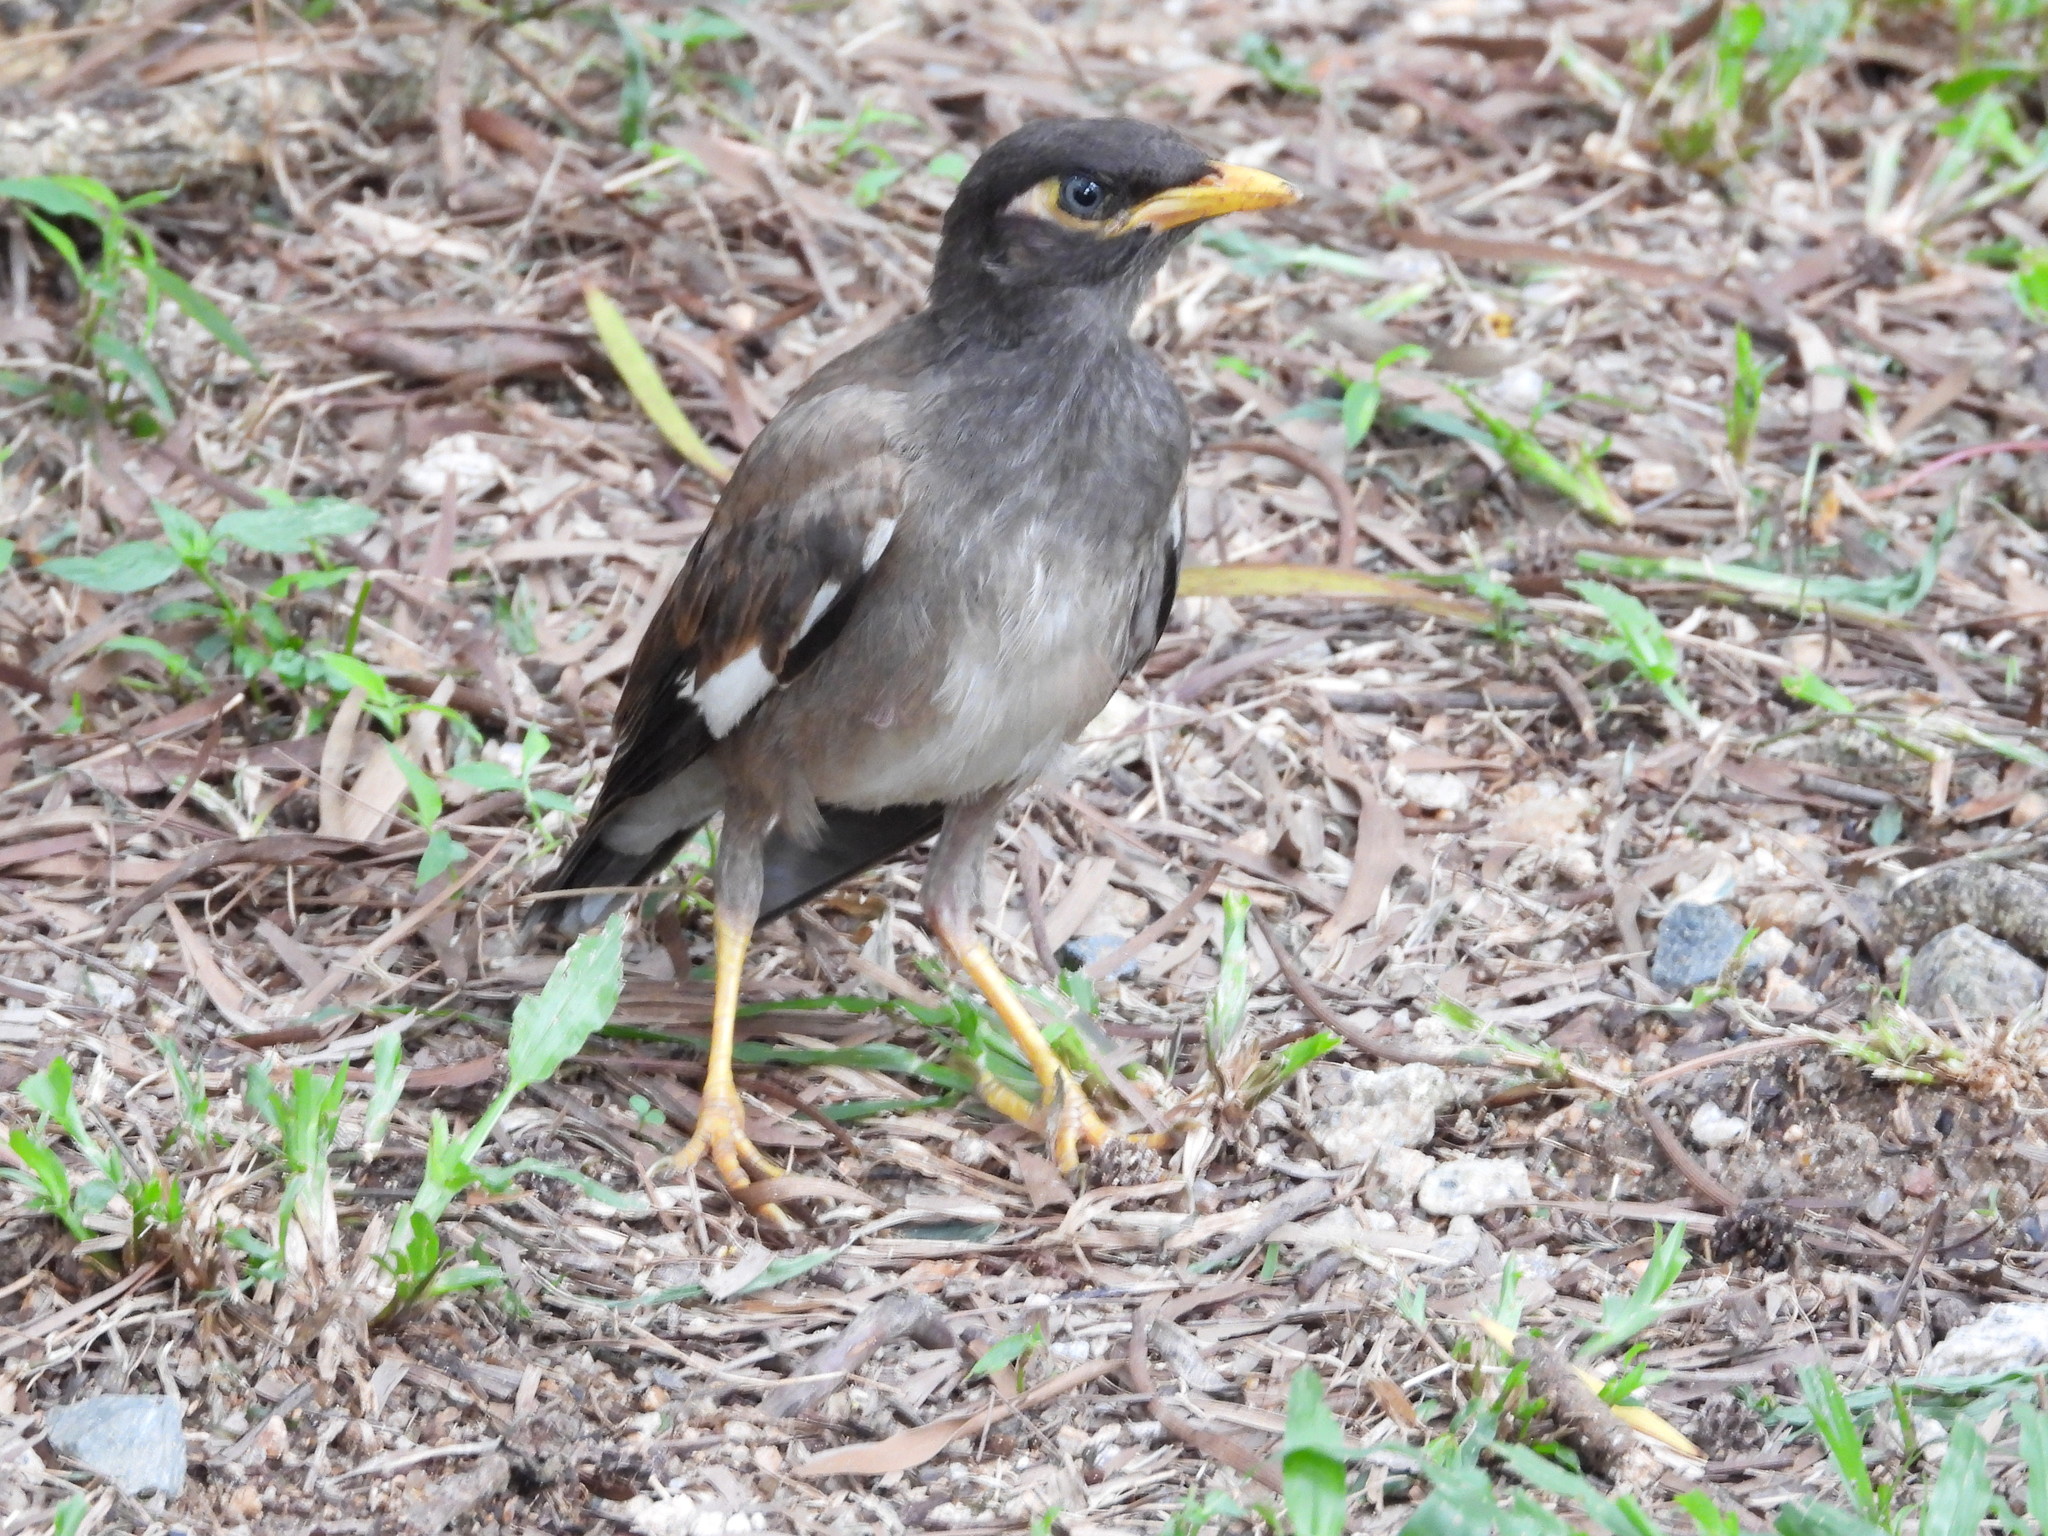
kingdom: Animalia
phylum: Chordata
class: Aves
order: Passeriformes
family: Sturnidae
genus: Acridotheres
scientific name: Acridotheres tristis
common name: Common myna
